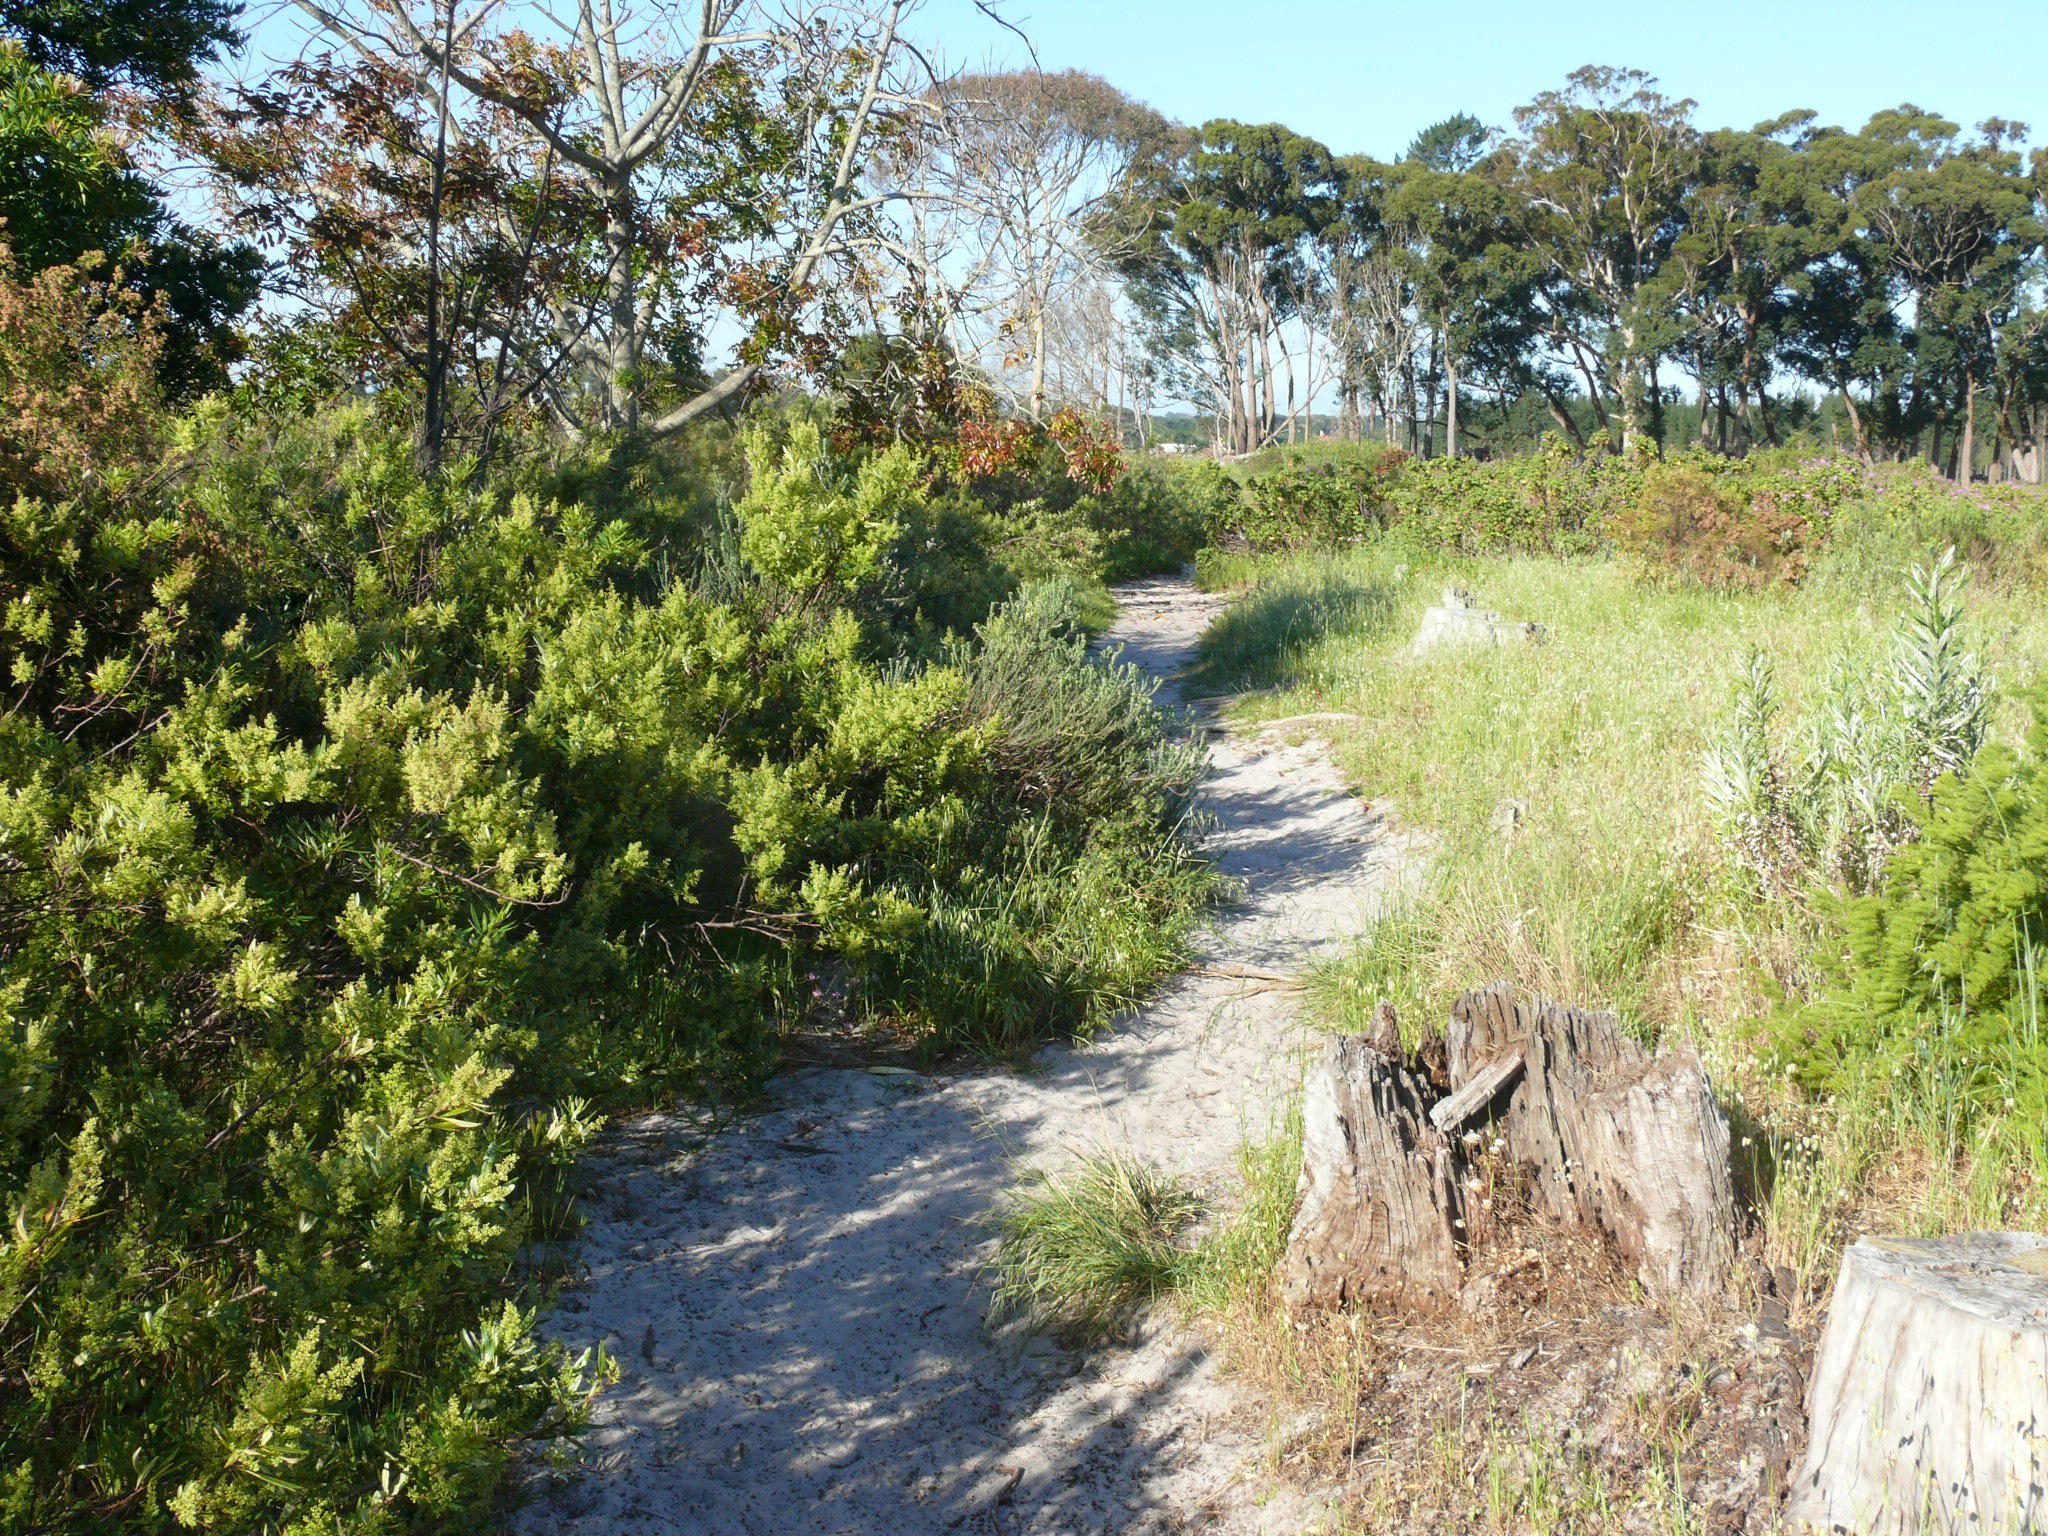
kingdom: Plantae
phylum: Tracheophyta
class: Magnoliopsida
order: Sapindales
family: Anacardiaceae
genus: Searsia
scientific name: Searsia angustifolia
